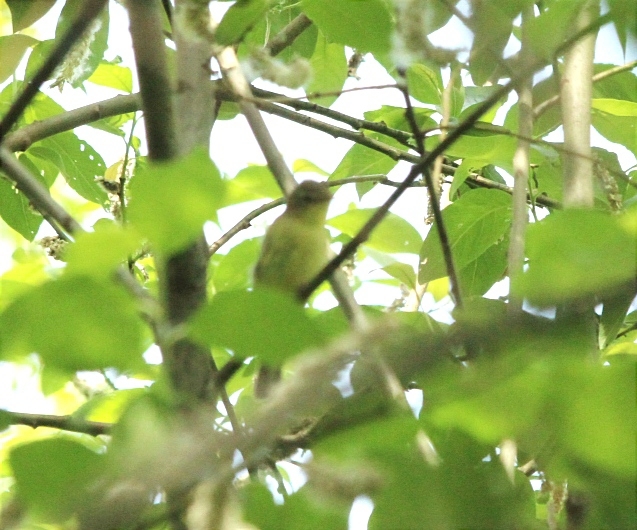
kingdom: Animalia
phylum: Chordata
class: Aves
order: Passeriformes
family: Acrocephalidae
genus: Hippolais
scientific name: Hippolais icterina
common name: Icterine warbler
